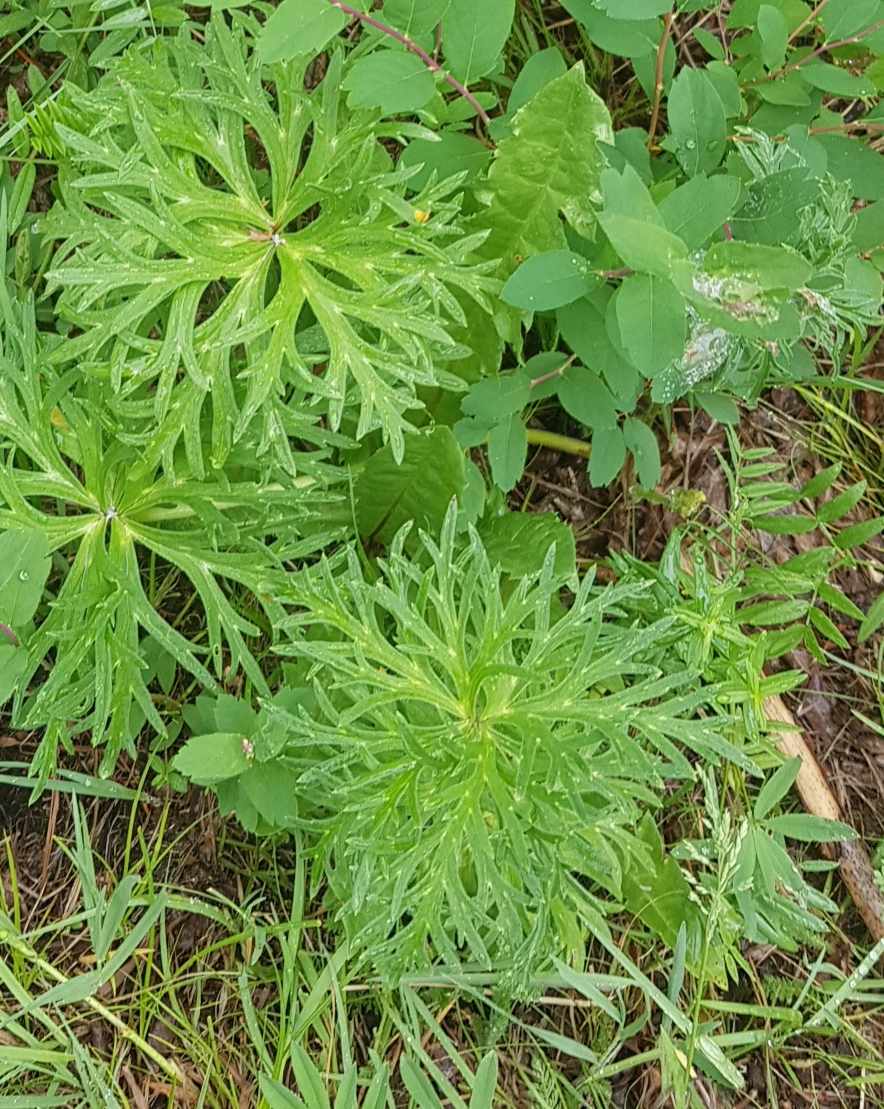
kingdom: Plantae
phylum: Tracheophyta
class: Magnoliopsida
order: Ranunculales
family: Ranunculaceae
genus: Aconitum
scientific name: Aconitum barbatum
